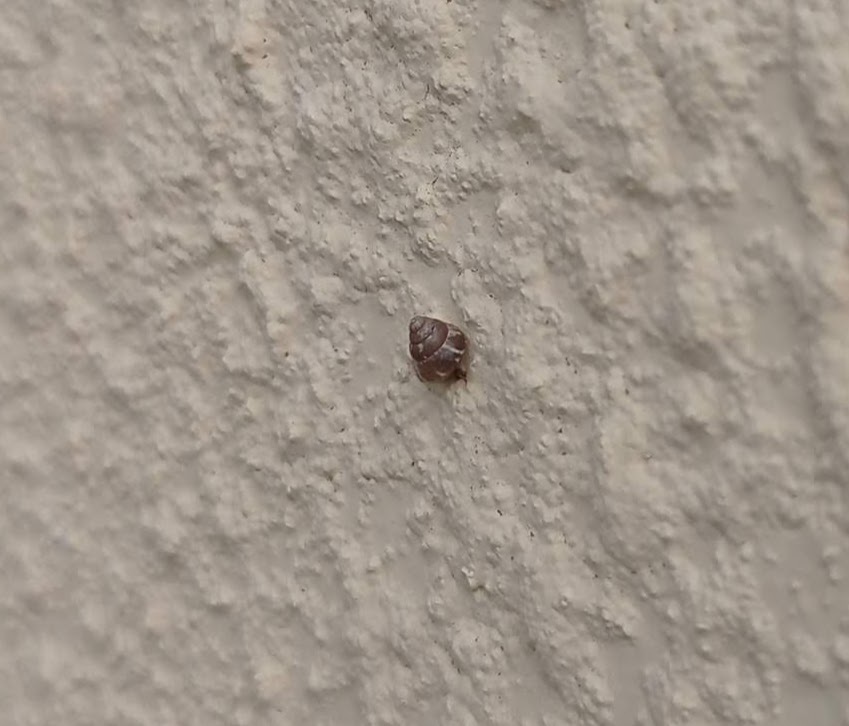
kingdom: Animalia
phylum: Mollusca
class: Gastropoda
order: Stylommatophora
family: Geomitridae
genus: Cochlicella
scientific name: Cochlicella barbara
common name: Potbellied helicellid
